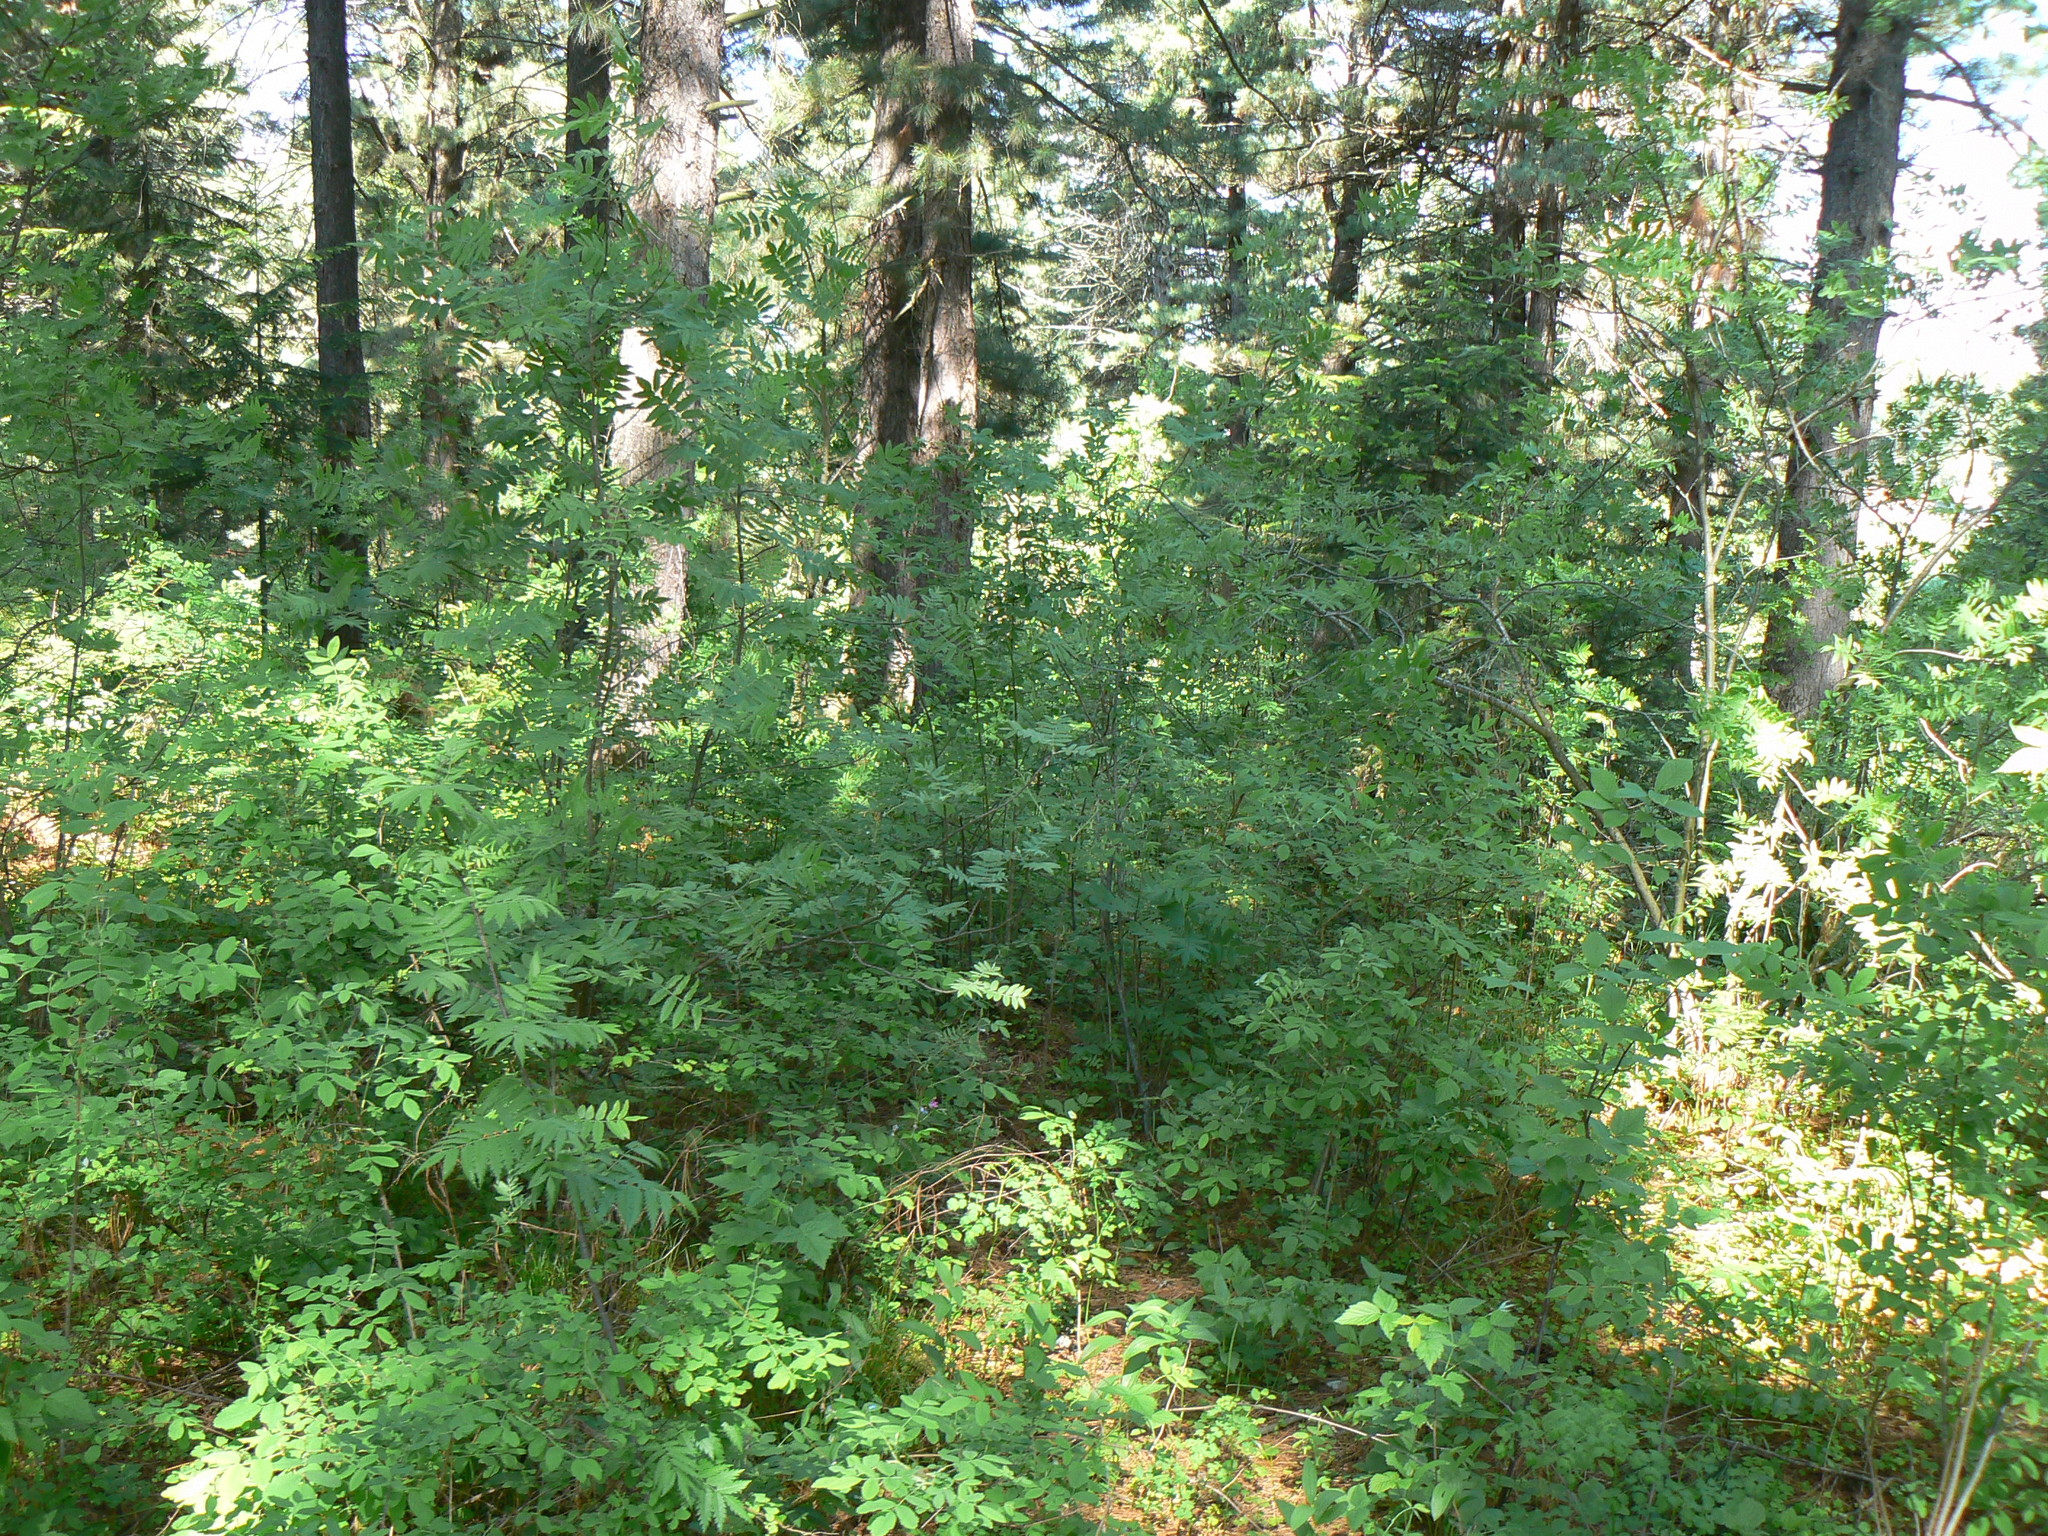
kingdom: Plantae
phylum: Tracheophyta
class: Magnoliopsida
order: Rosales
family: Rosaceae
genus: Sorbus
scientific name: Sorbus aucuparia
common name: Rowan
